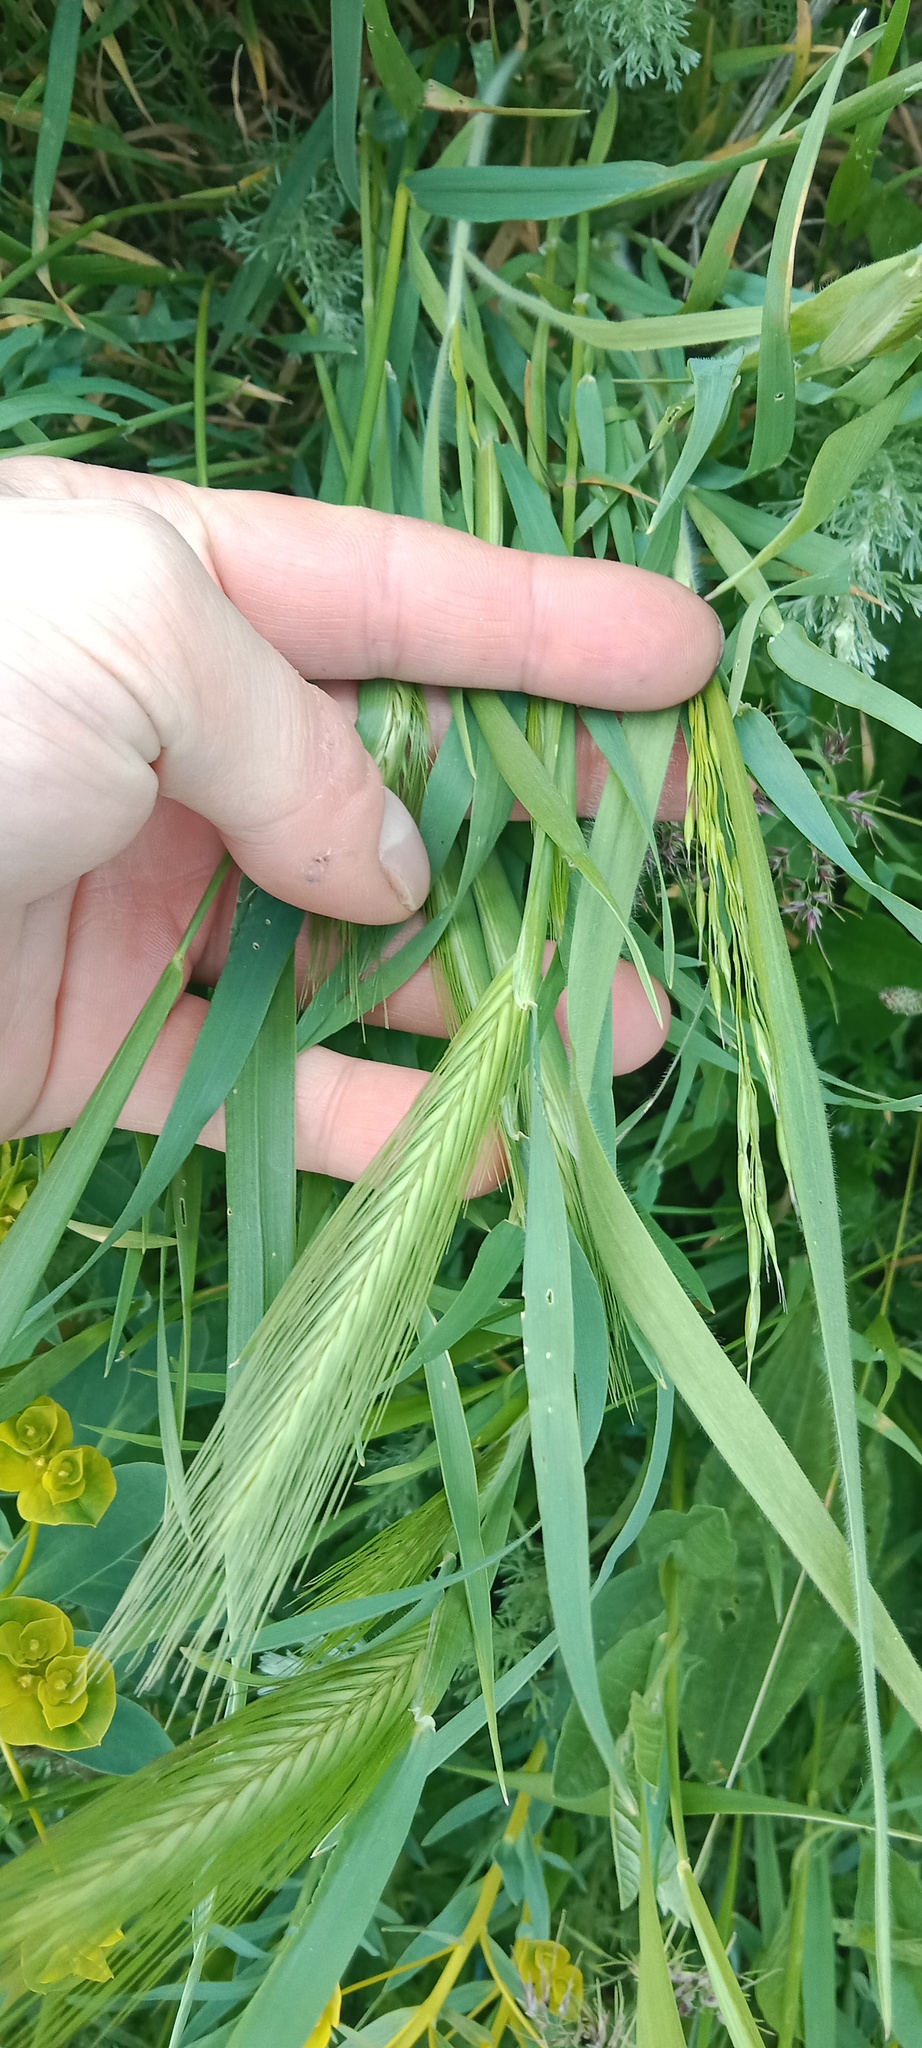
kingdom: Plantae
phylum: Tracheophyta
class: Liliopsida
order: Poales
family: Poaceae
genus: Hordeum
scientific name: Hordeum murinum
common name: Wall barley
